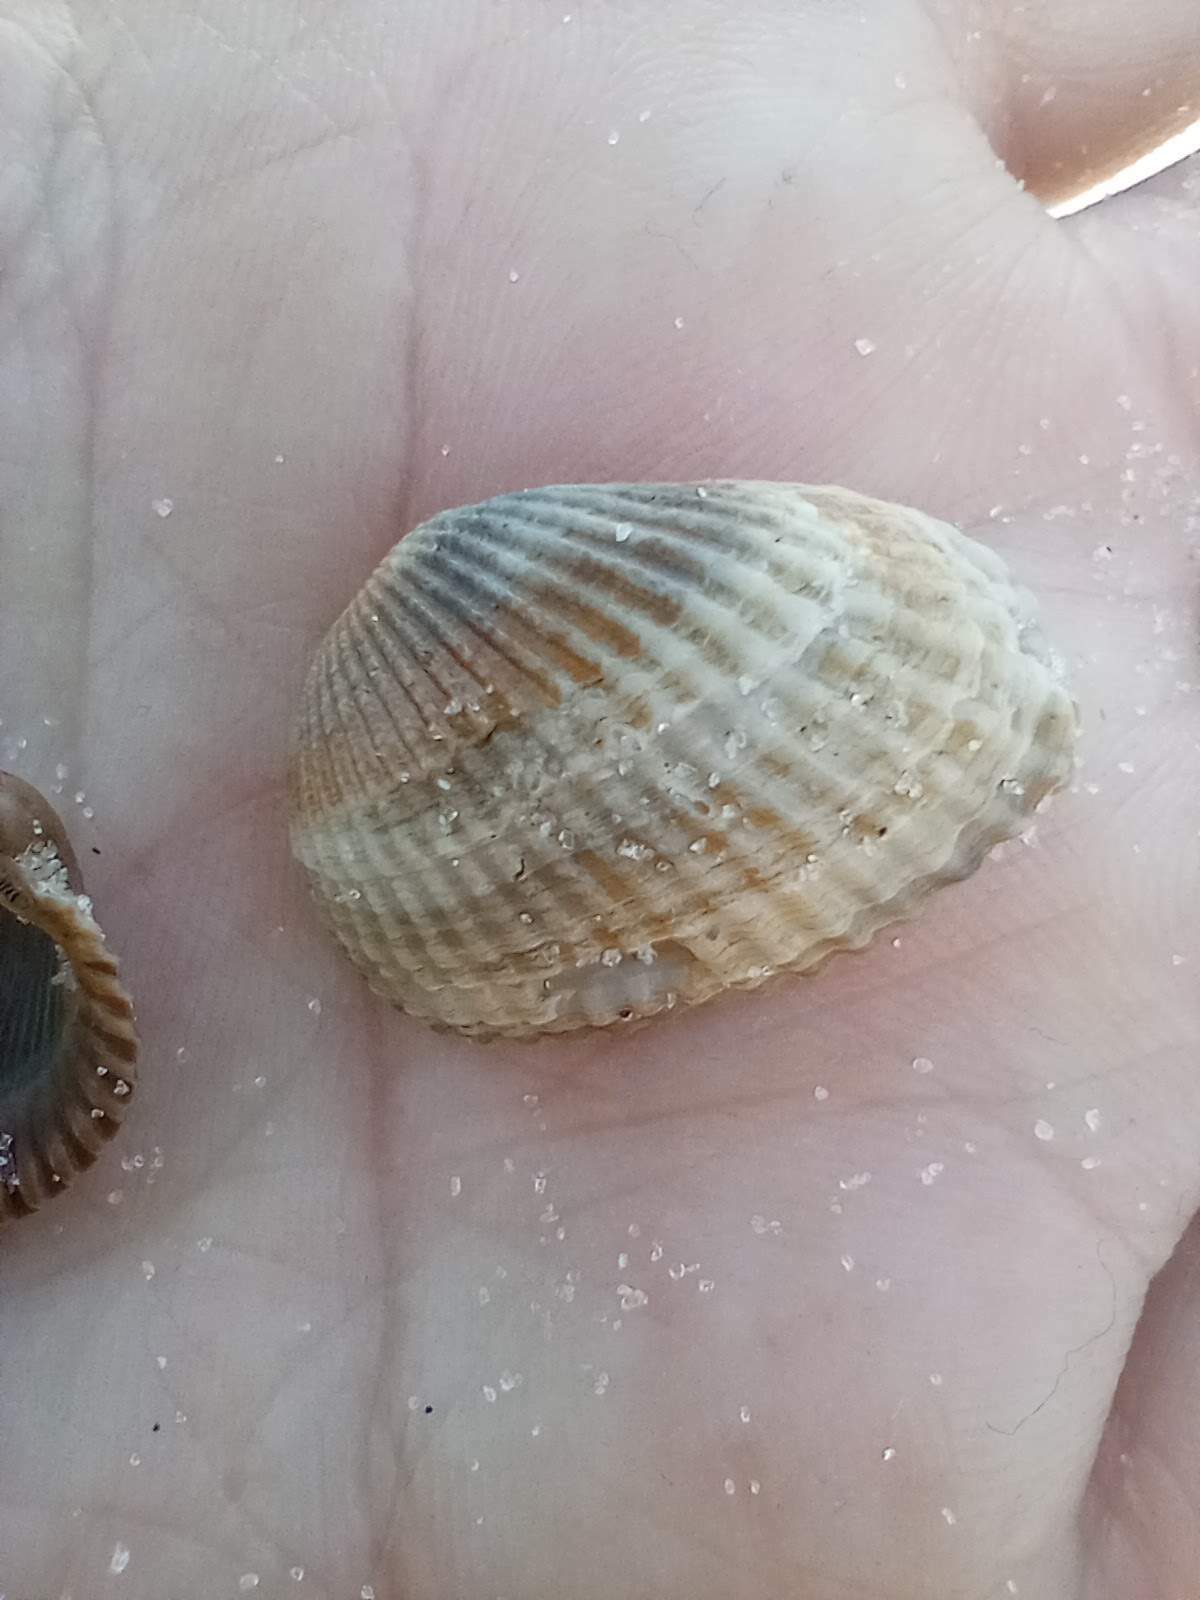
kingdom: Animalia
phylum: Mollusca
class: Bivalvia
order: Arcida
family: Arcidae
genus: Anadara
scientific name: Anadara transversa
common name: Transverse ark
